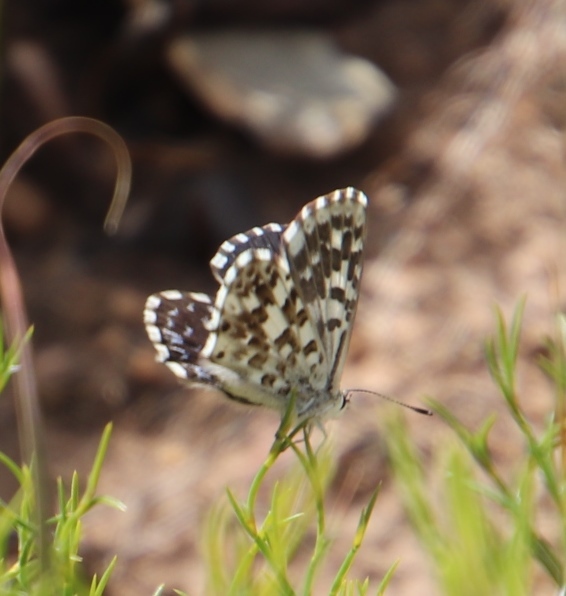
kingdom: Animalia
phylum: Arthropoda
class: Insecta
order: Lepidoptera
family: Lycaenidae
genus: Tarucus
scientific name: Tarucus thespis
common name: Vivid dotted blue
